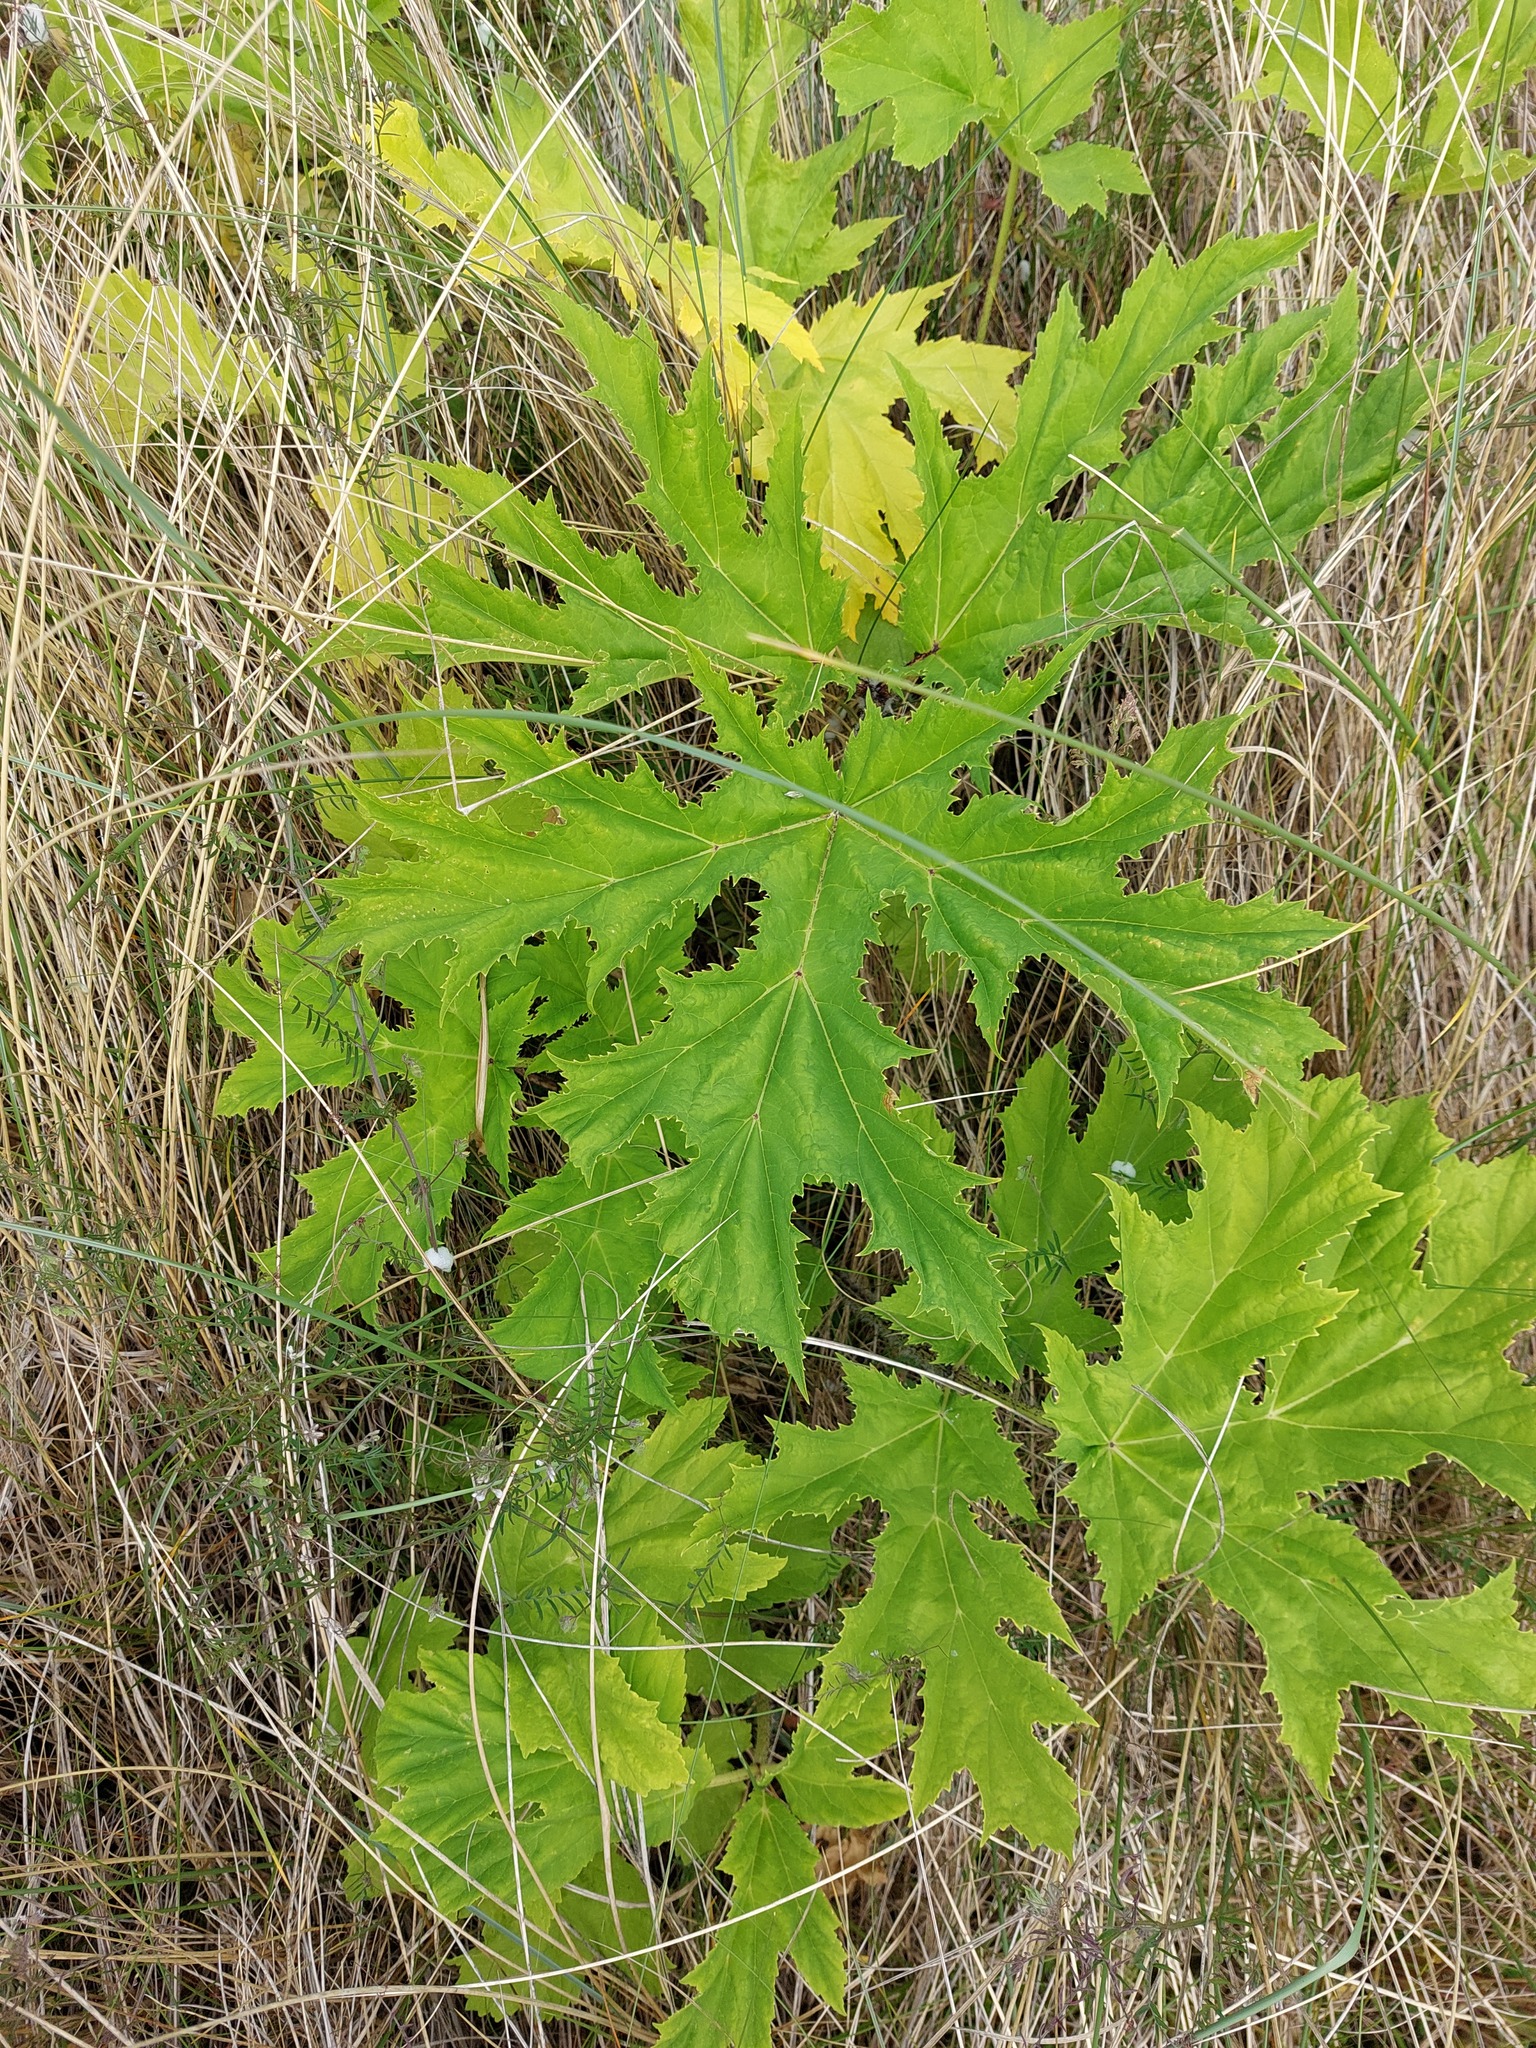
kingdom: Plantae
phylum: Tracheophyta
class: Magnoliopsida
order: Apiales
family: Apiaceae
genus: Heracleum
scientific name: Heracleum mantegazzianum
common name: Giant hogweed
